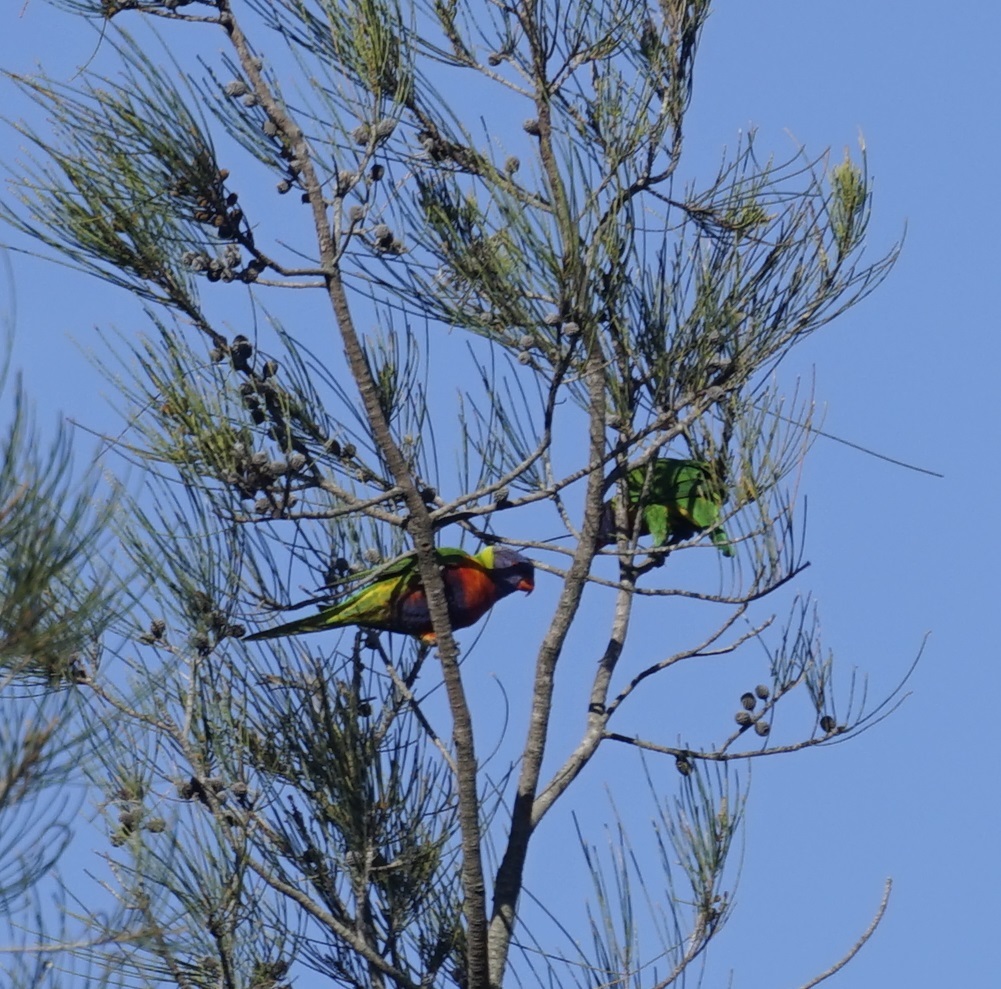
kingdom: Animalia
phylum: Chordata
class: Aves
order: Psittaciformes
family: Psittacidae
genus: Trichoglossus
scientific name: Trichoglossus haematodus
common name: Coconut lorikeet
